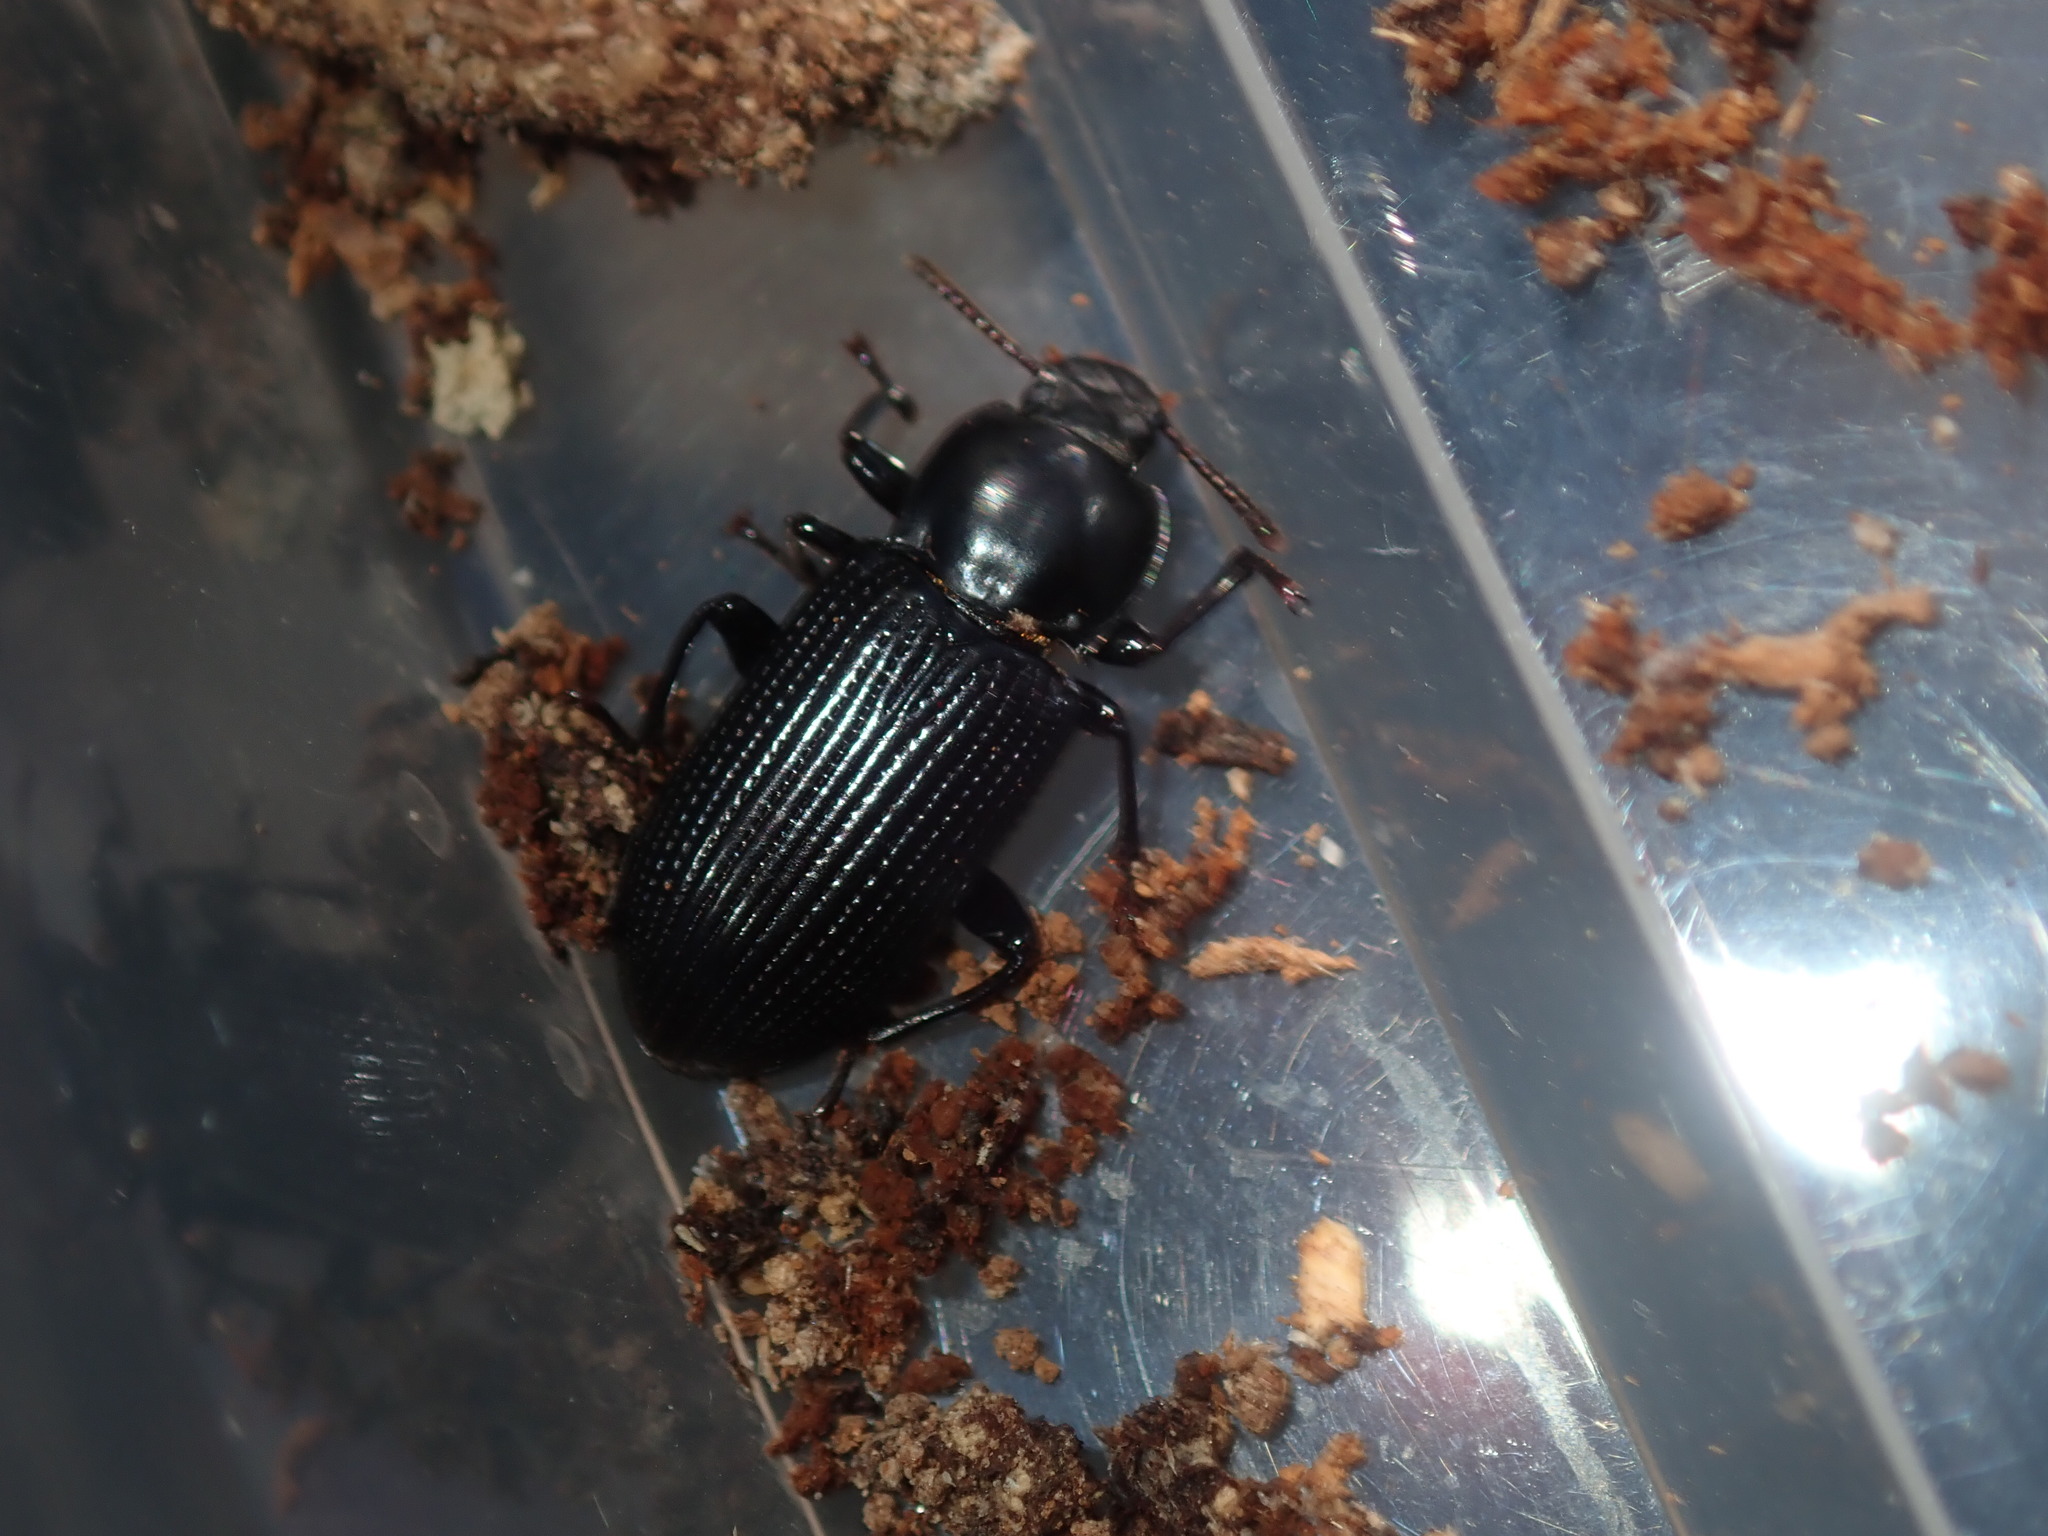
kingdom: Animalia
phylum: Arthropoda
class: Insecta
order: Coleoptera
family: Tenebrionidae
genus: Meneristes
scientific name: Meneristes australis
